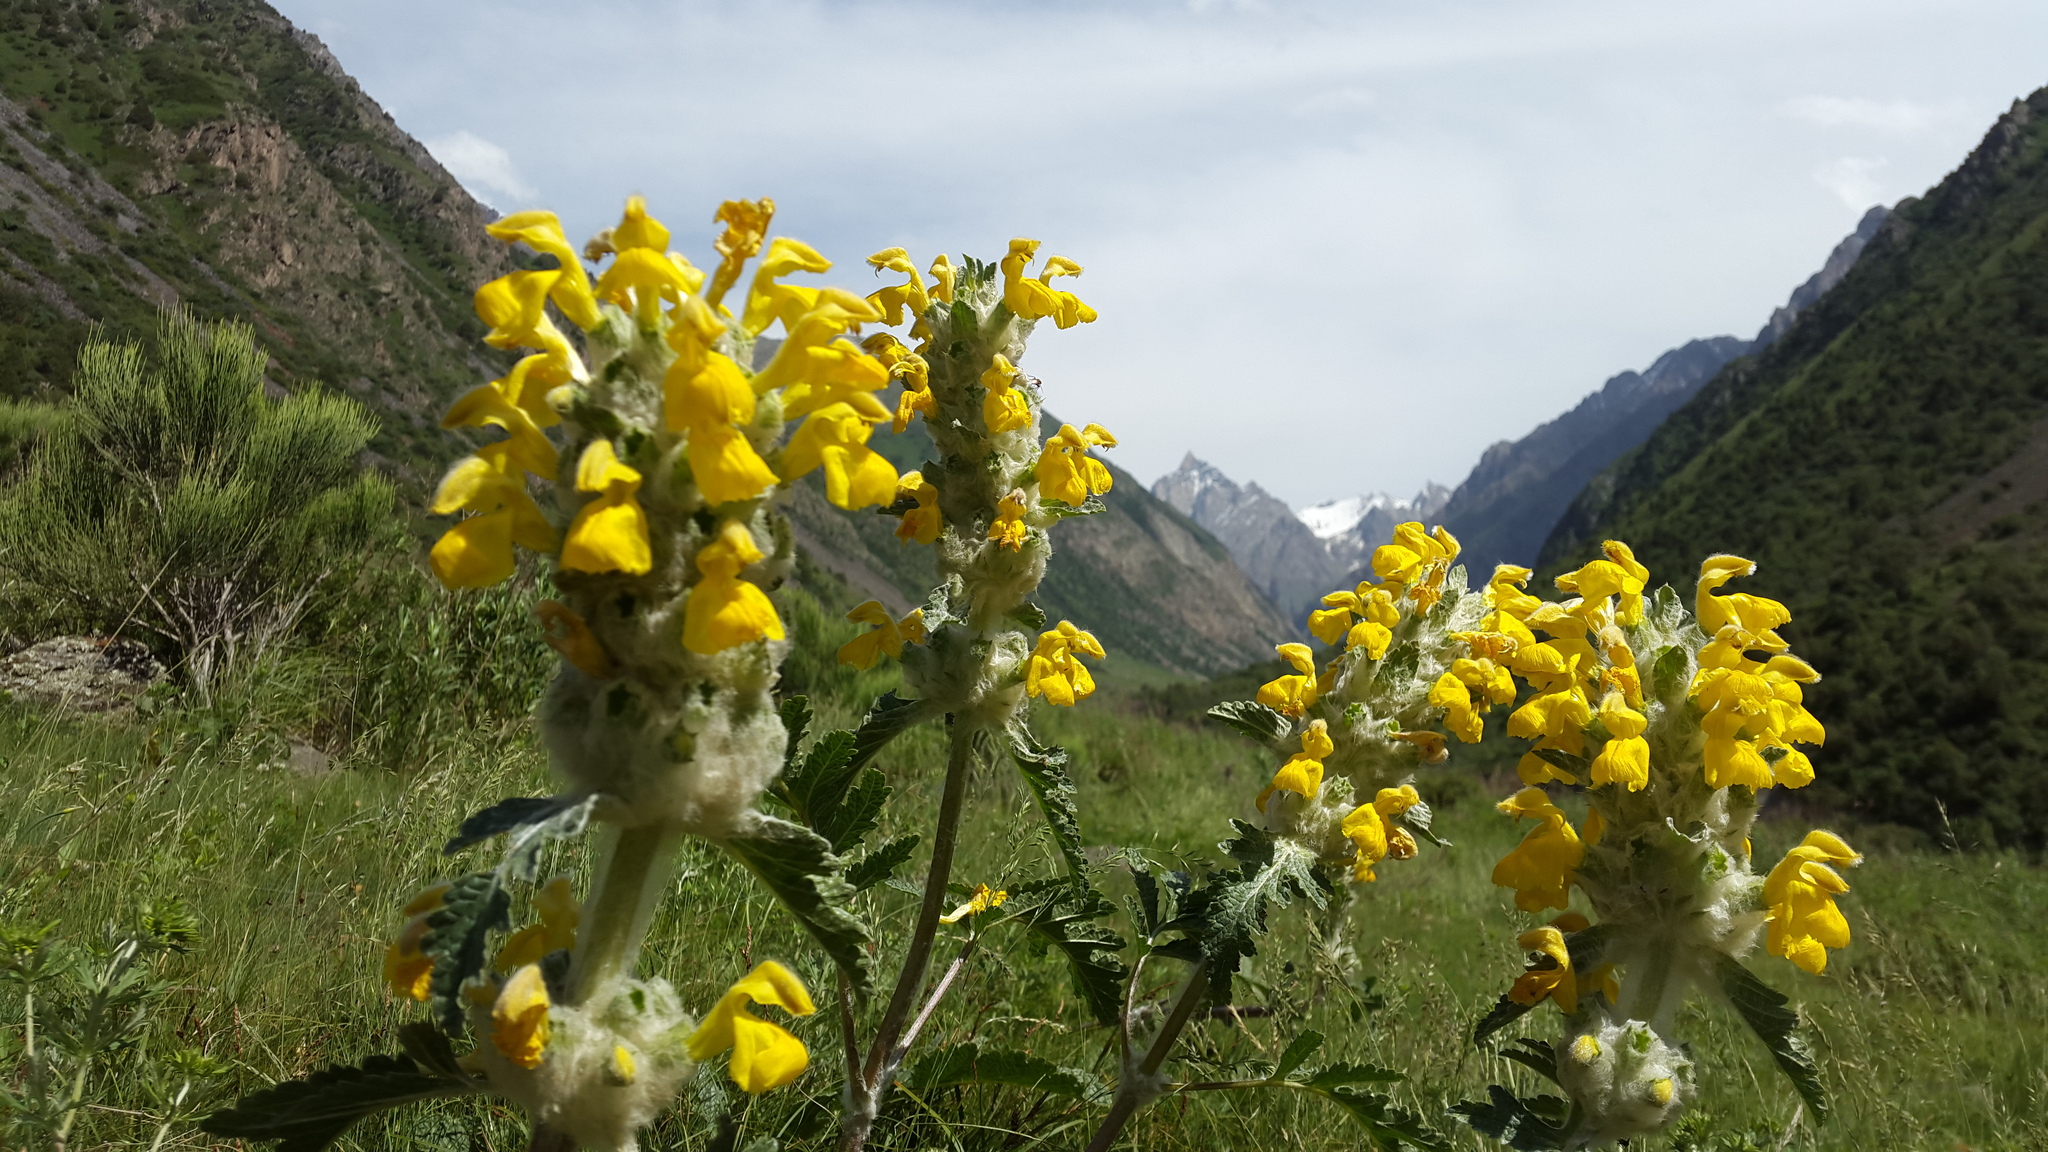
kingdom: Plantae
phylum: Tracheophyta
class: Magnoliopsida
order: Lamiales
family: Lamiaceae
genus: Phlomoides
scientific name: Phlomoides speciosa
